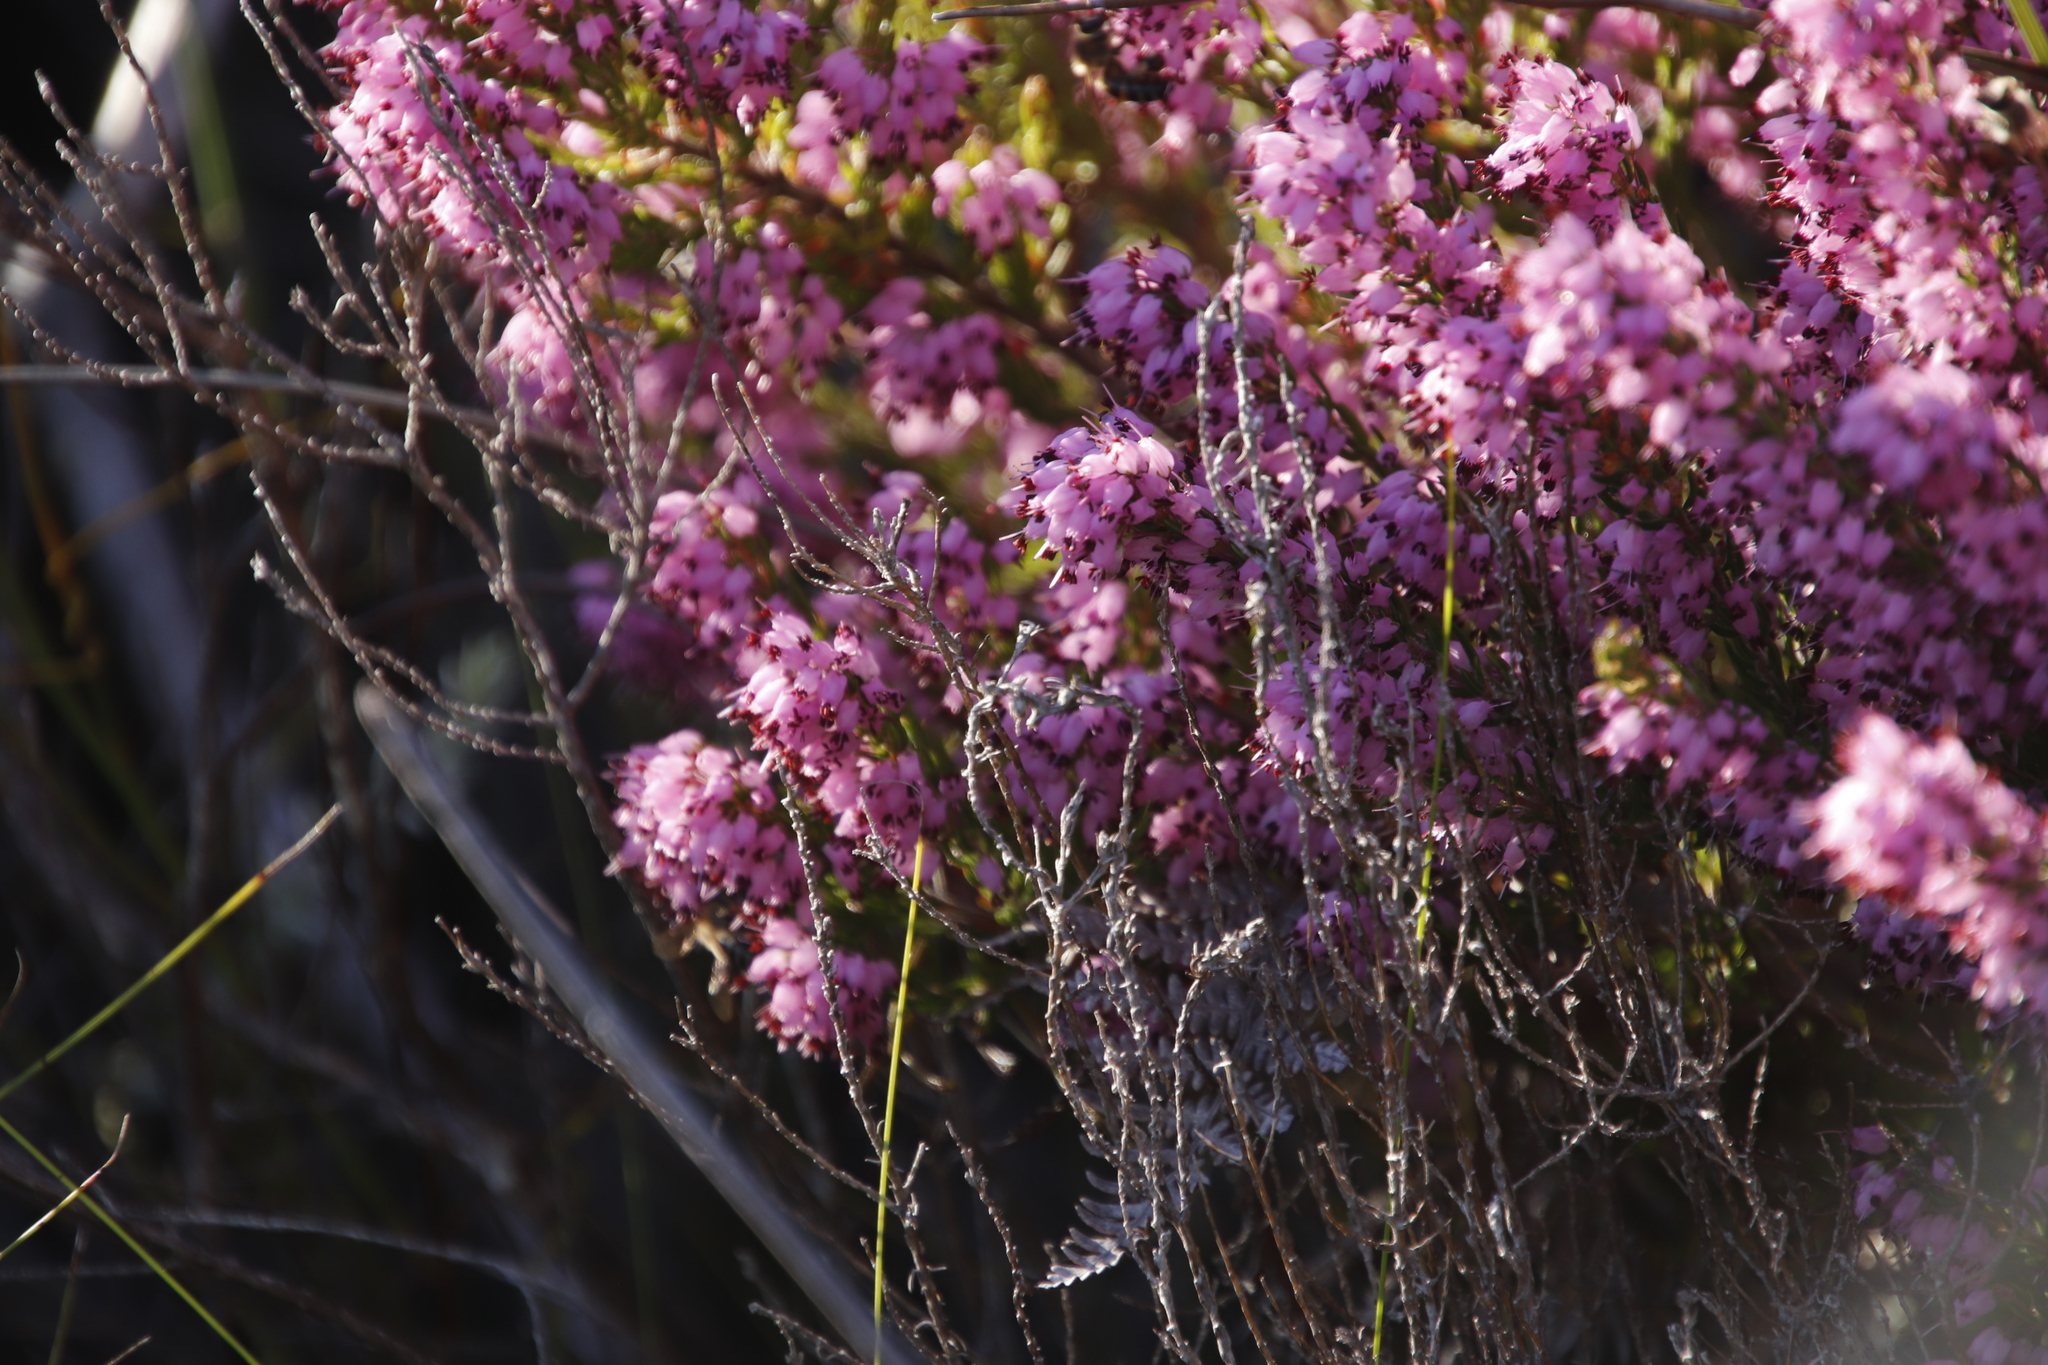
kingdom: Plantae
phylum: Tracheophyta
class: Magnoliopsida
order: Ericales
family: Ericaceae
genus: Erica
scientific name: Erica nudiflora
